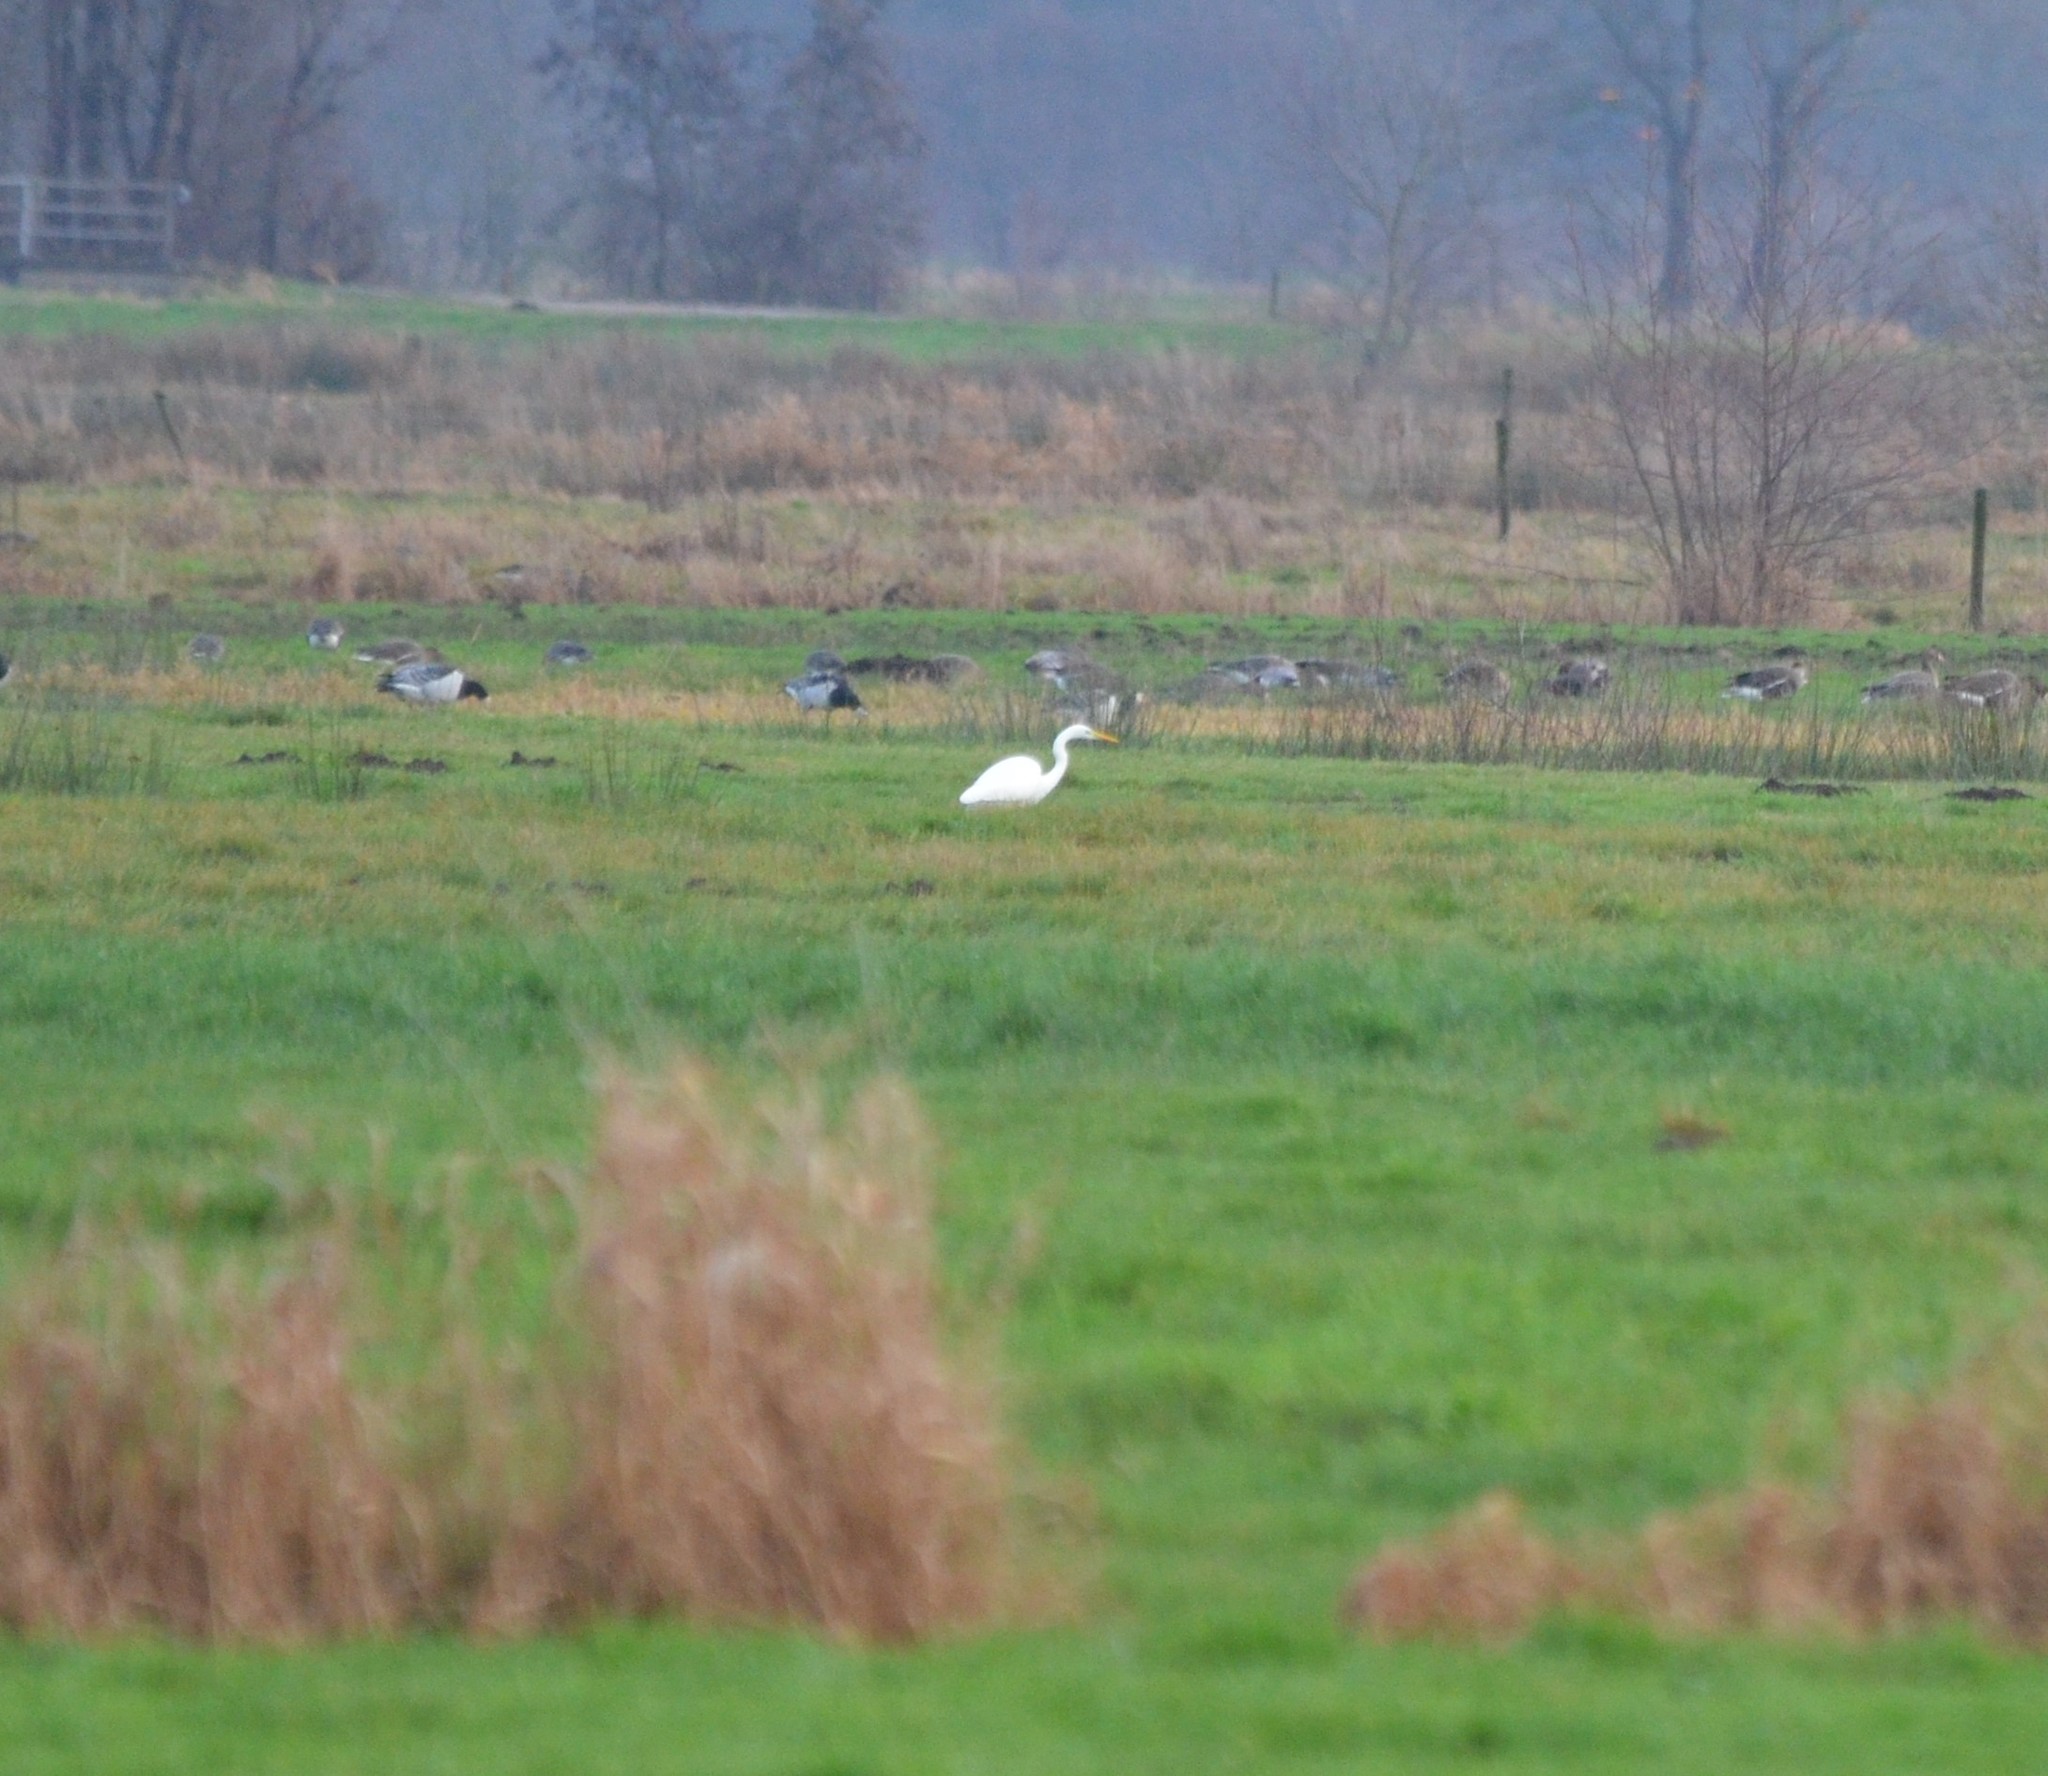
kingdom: Animalia
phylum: Chordata
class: Aves
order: Pelecaniformes
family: Ardeidae
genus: Ardea
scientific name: Ardea alba
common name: Great egret
